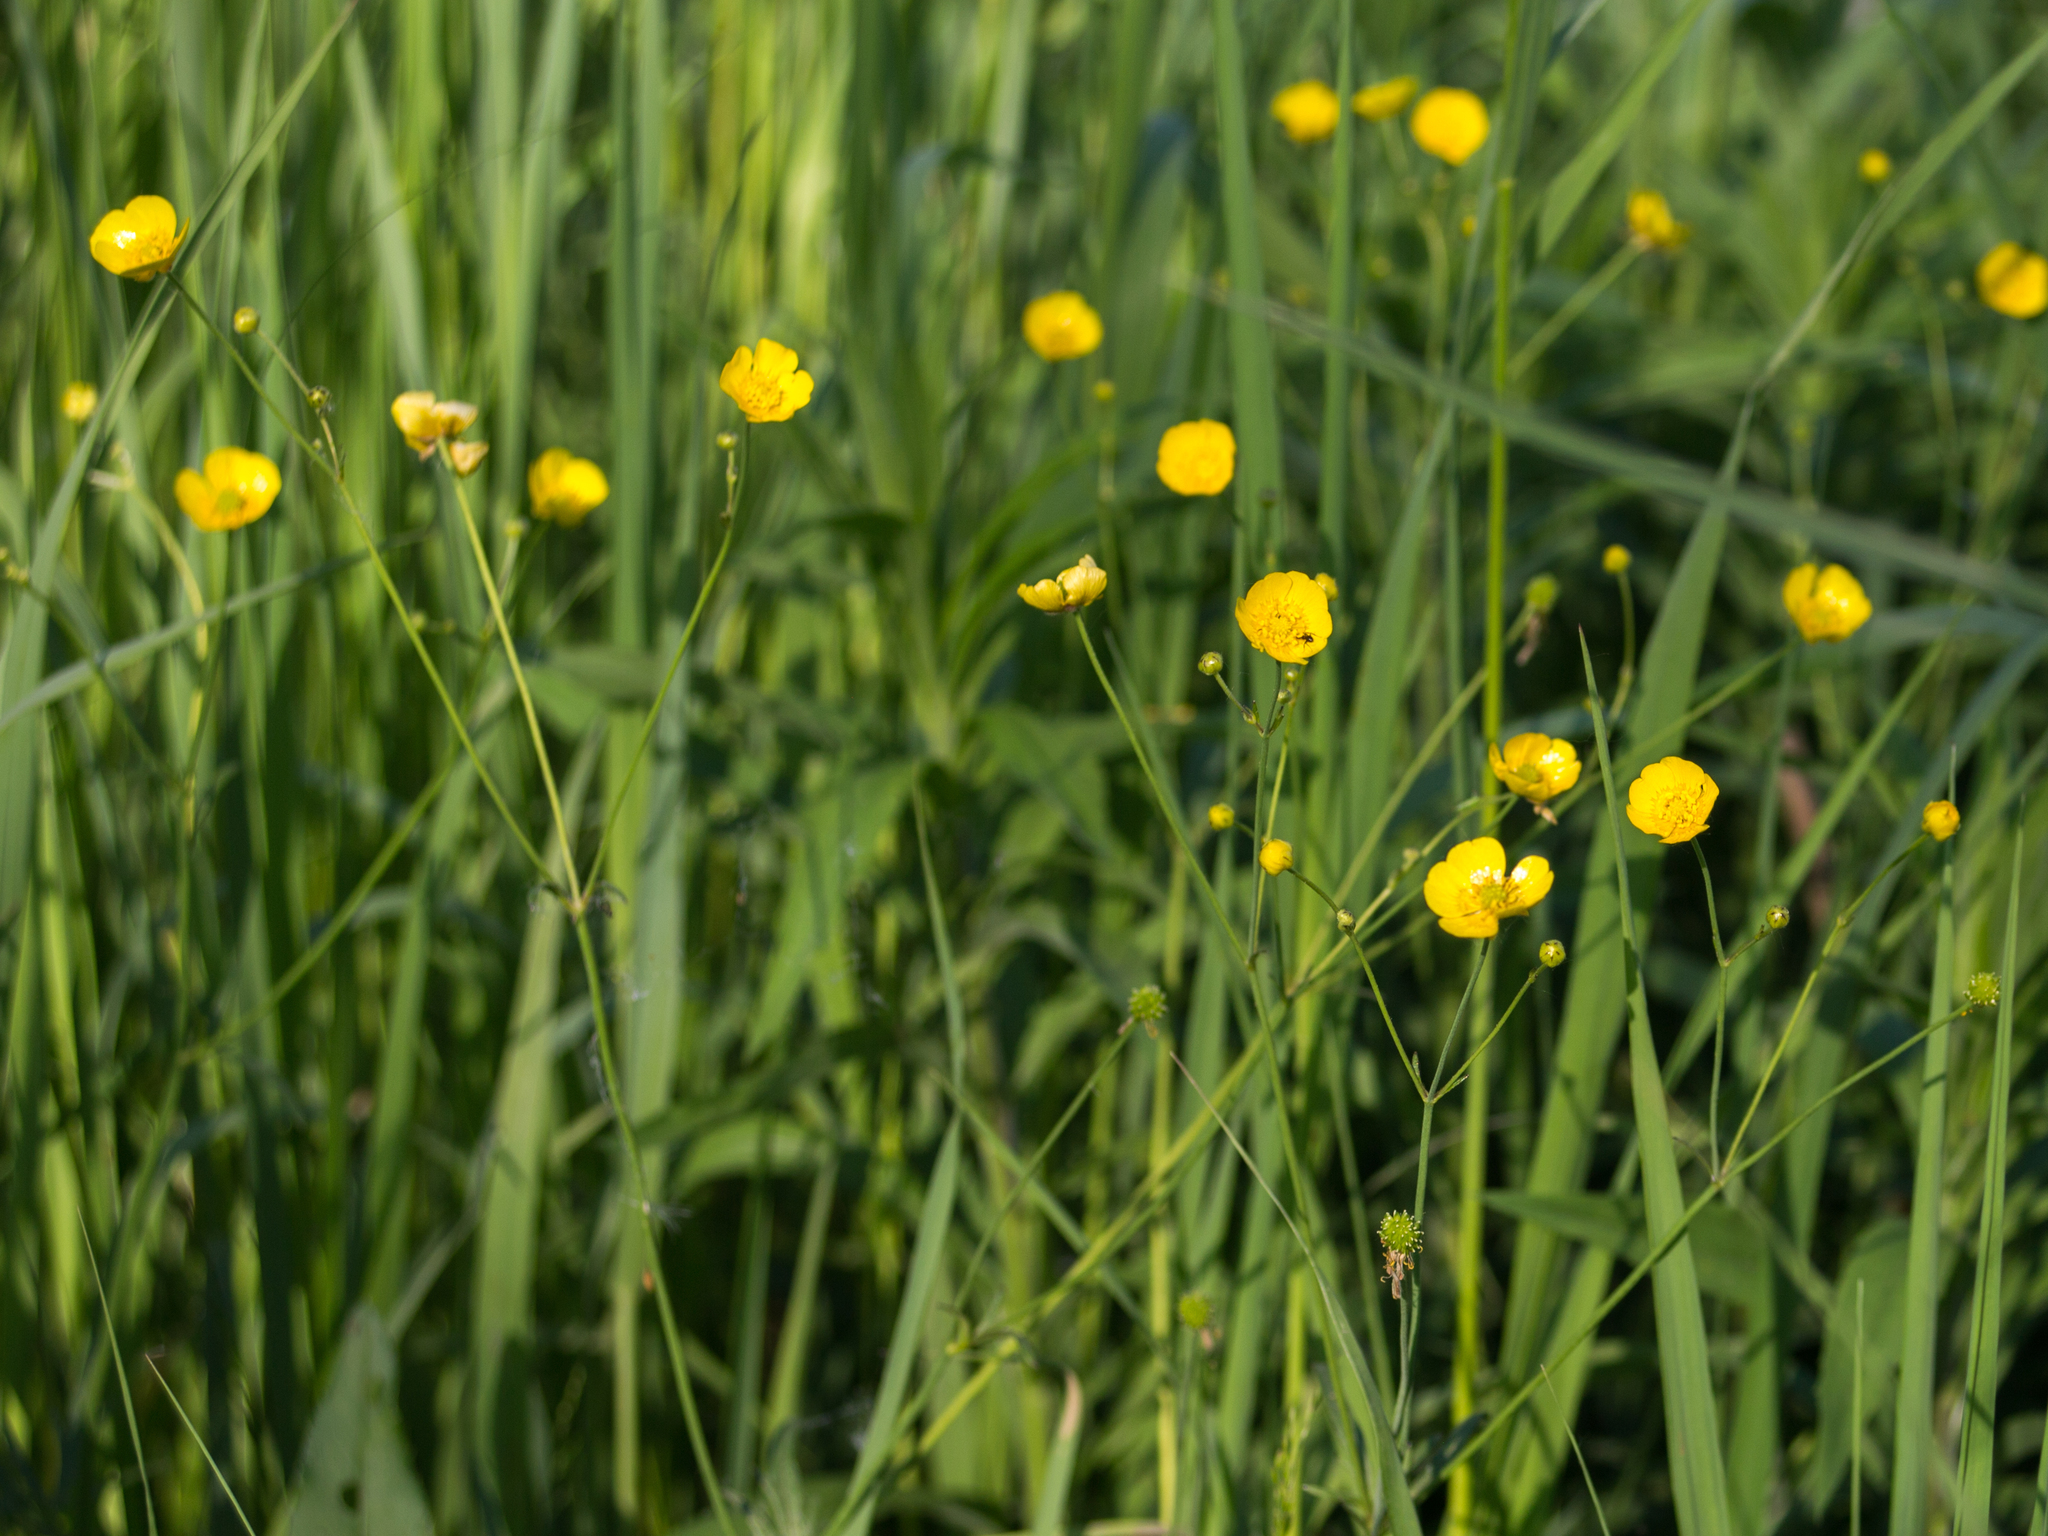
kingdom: Plantae
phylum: Tracheophyta
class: Magnoliopsida
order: Ranunculales
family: Ranunculaceae
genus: Ranunculus
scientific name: Ranunculus acris
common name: Meadow buttercup
